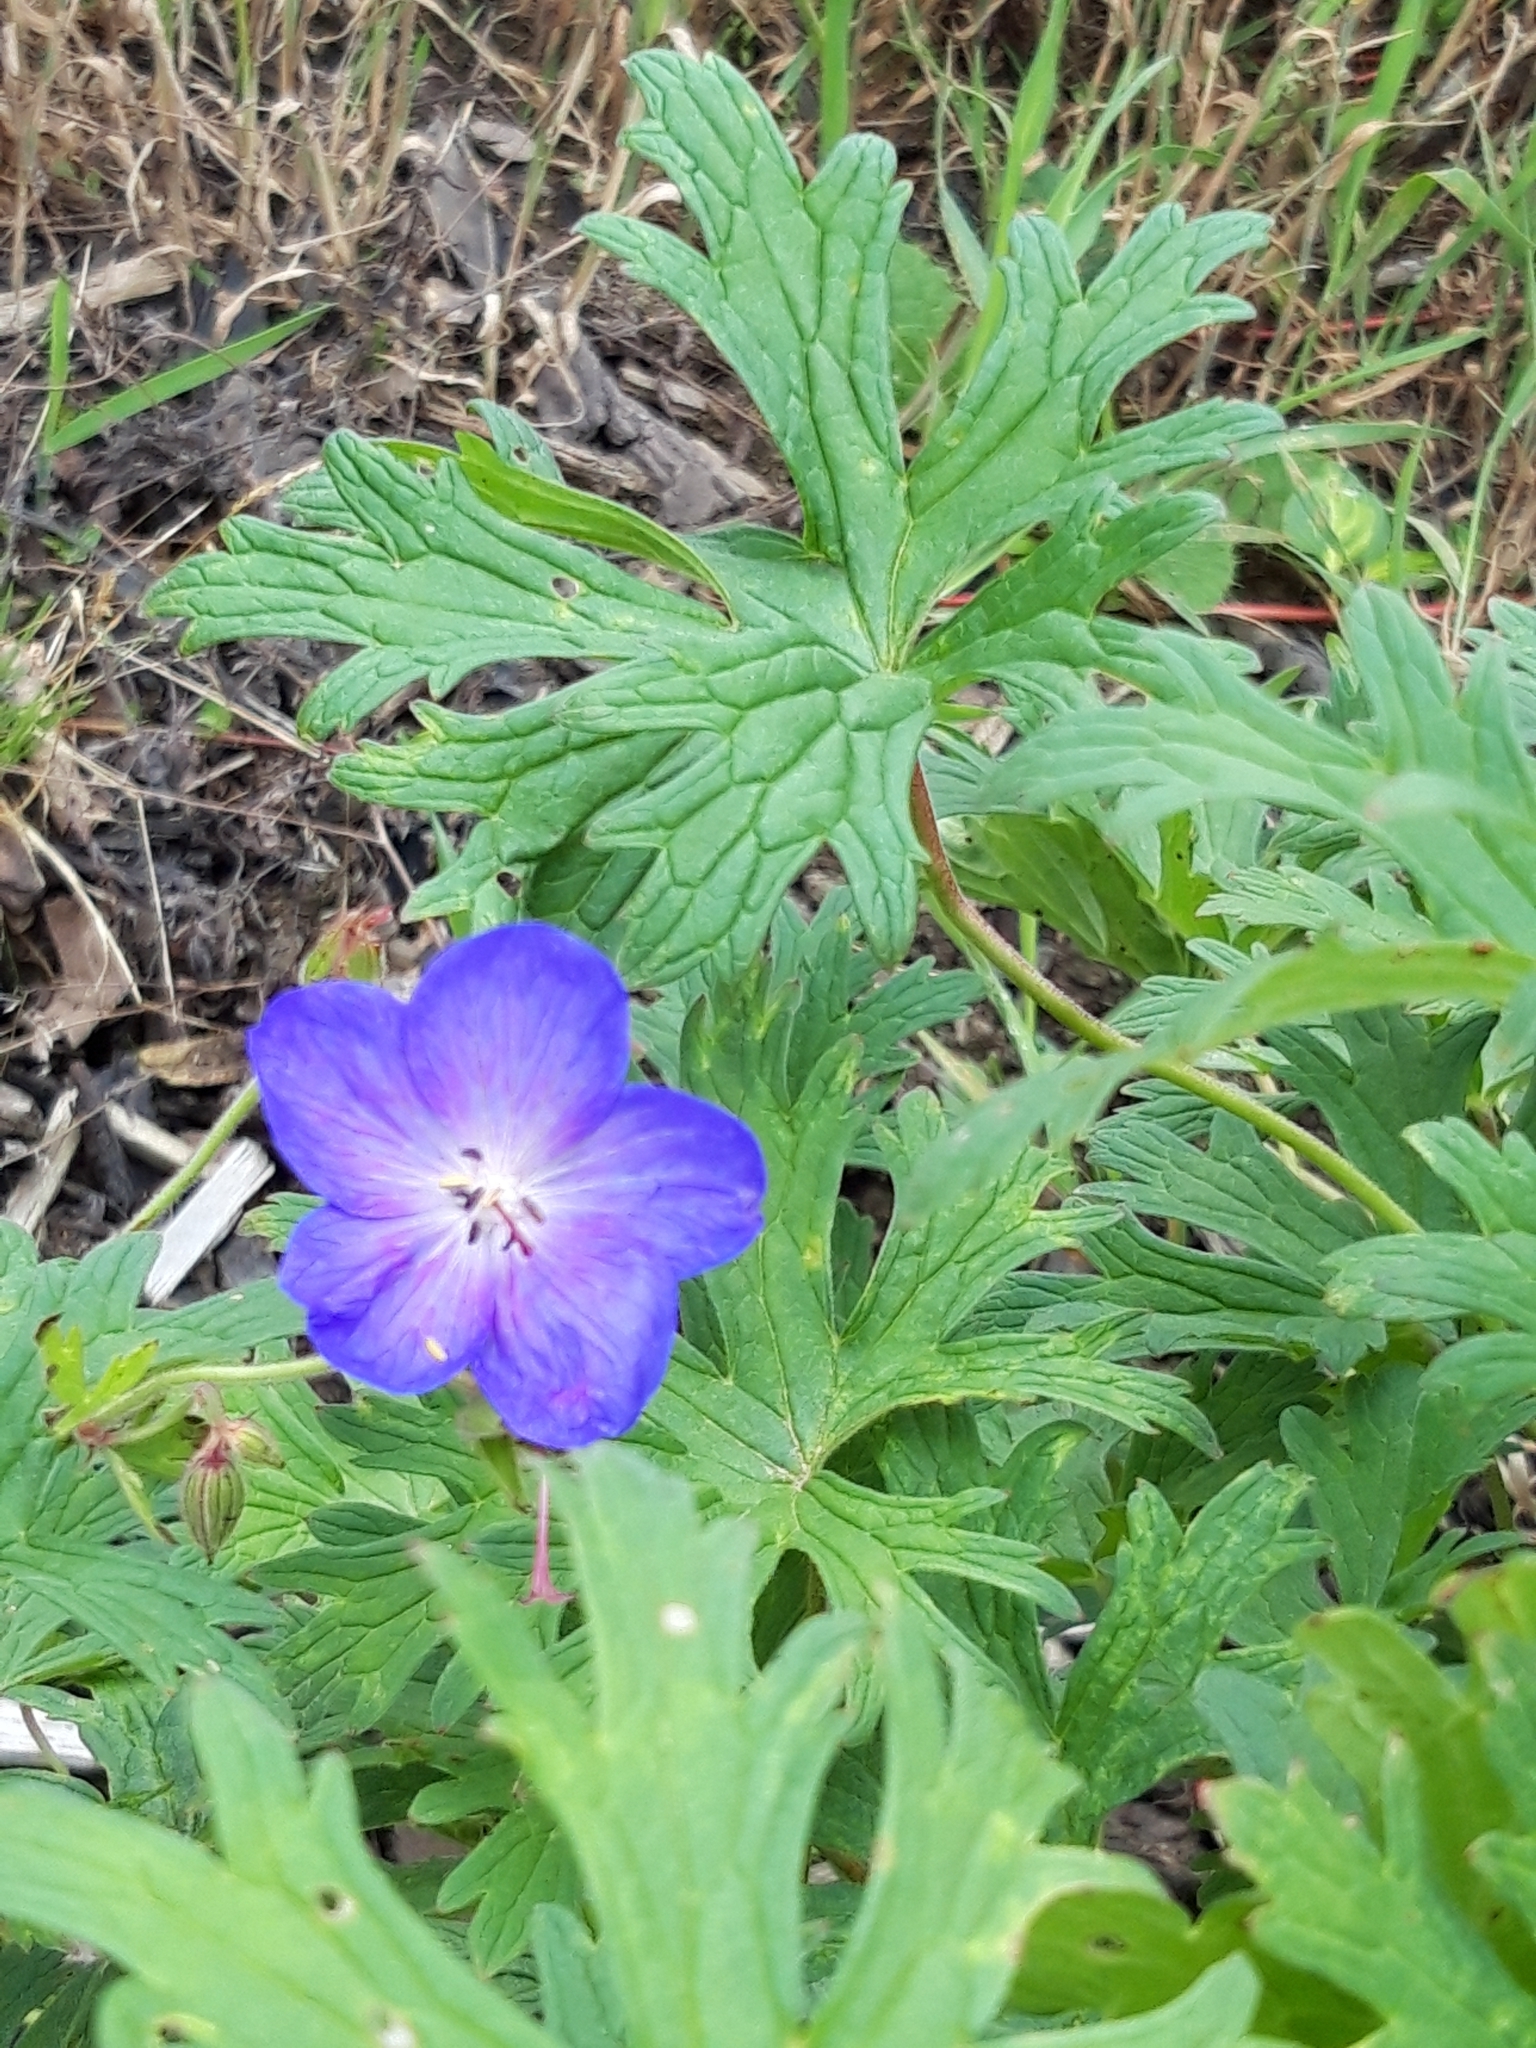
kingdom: Plantae
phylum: Tracheophyta
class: Magnoliopsida
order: Geraniales
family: Geraniaceae
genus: Geranium
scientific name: Geranium pratense
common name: Meadow crane's-bill
